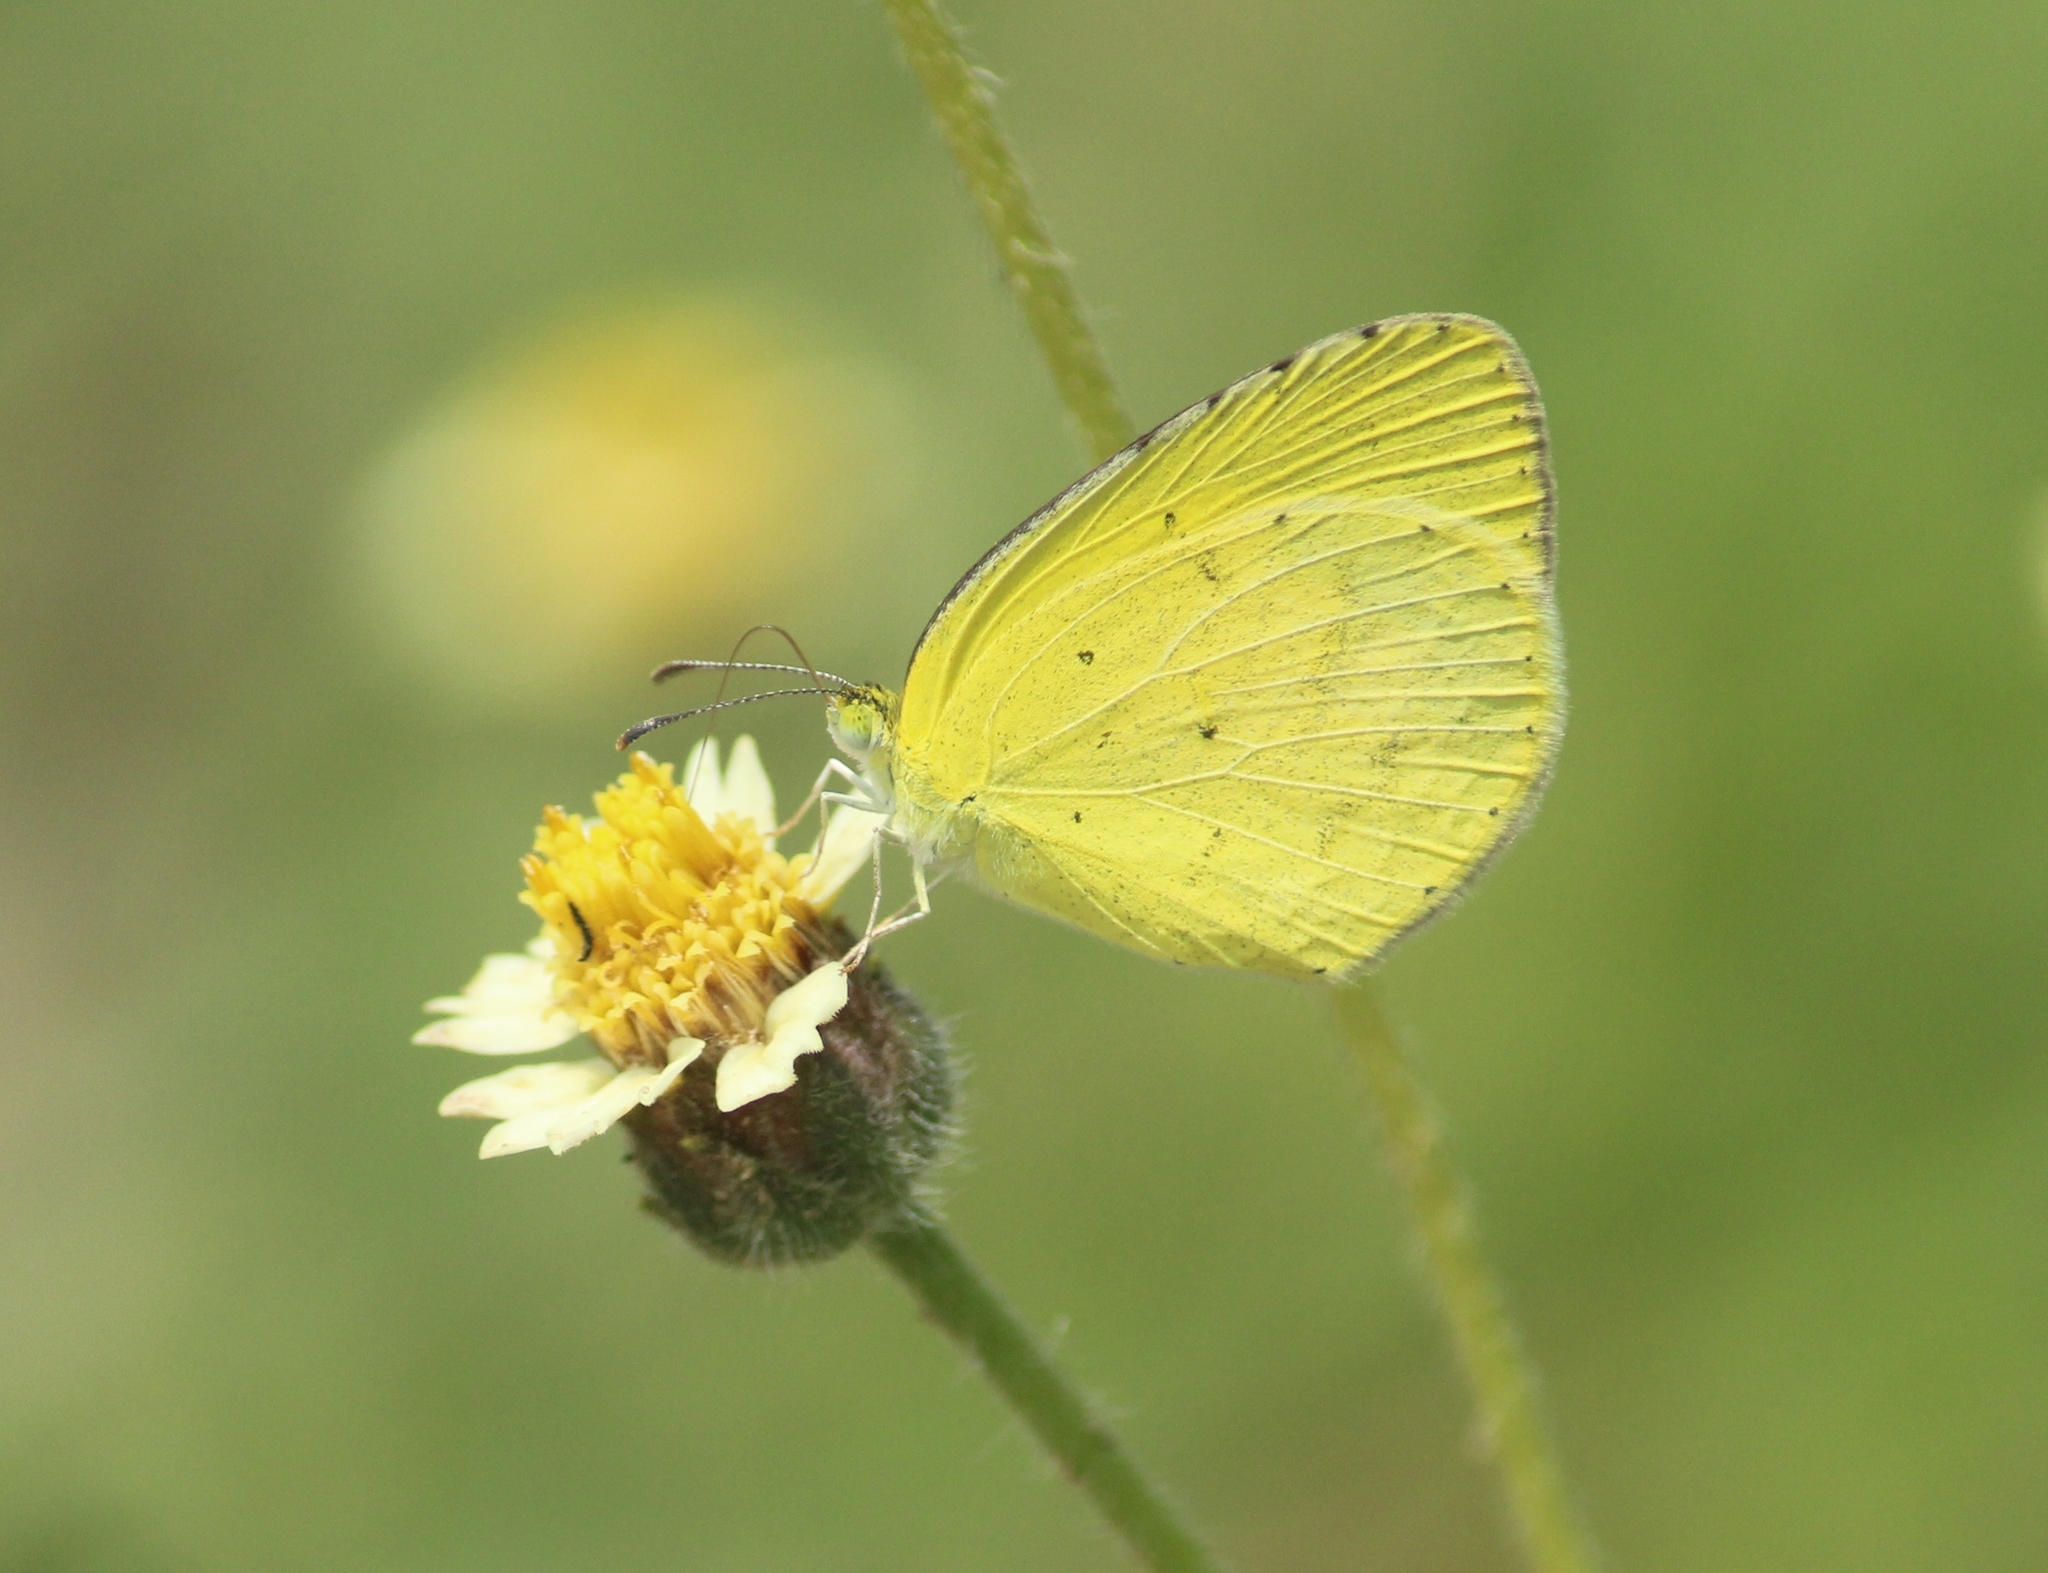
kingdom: Animalia
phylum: Arthropoda
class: Insecta
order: Lepidoptera
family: Pieridae
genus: Eurema
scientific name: Eurema brigitta
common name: Small grass yellow
